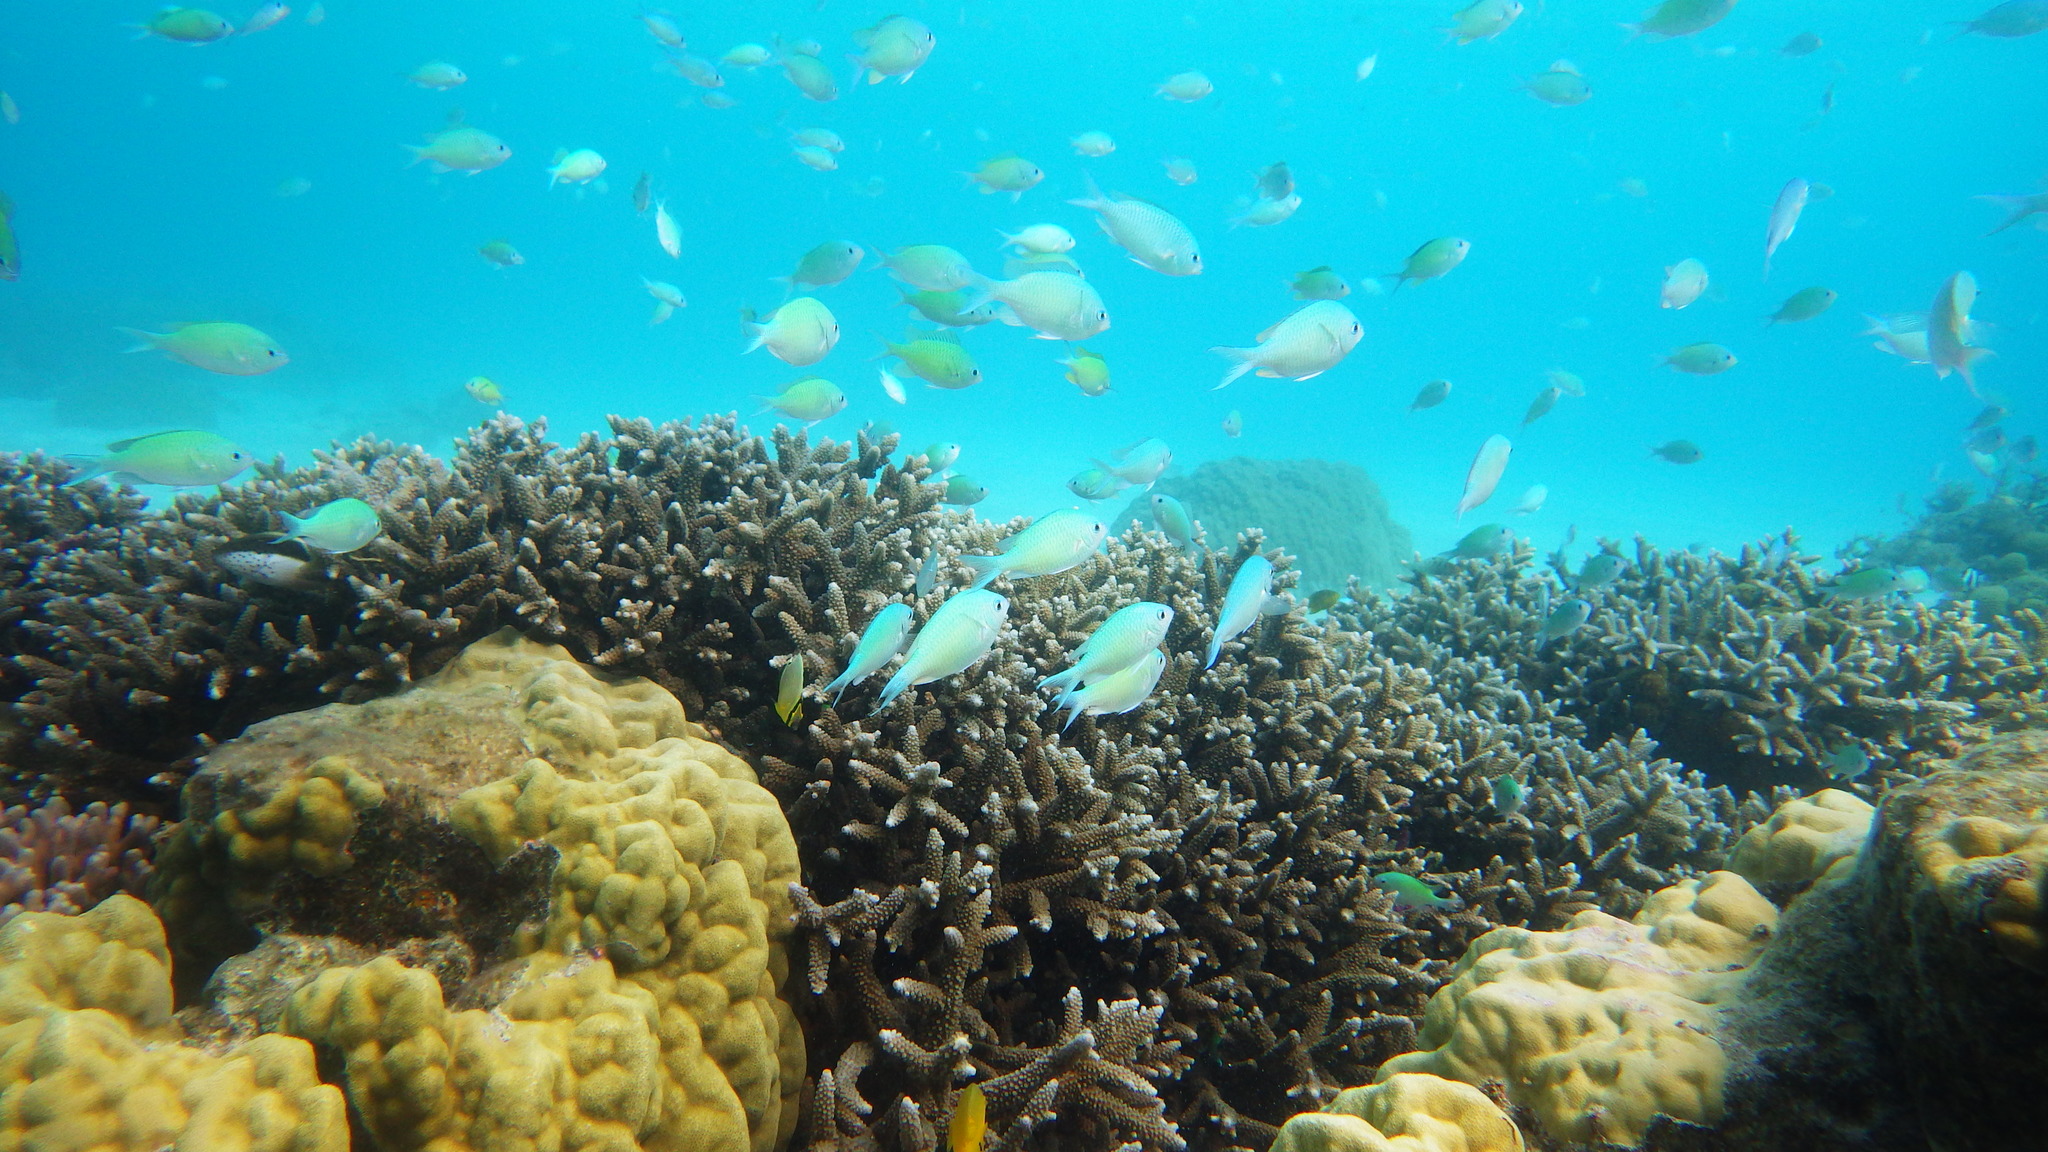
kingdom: Animalia
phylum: Chordata
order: Perciformes
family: Pomacentridae
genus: Chromis
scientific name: Chromis viridis
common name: Blue-green chromis
